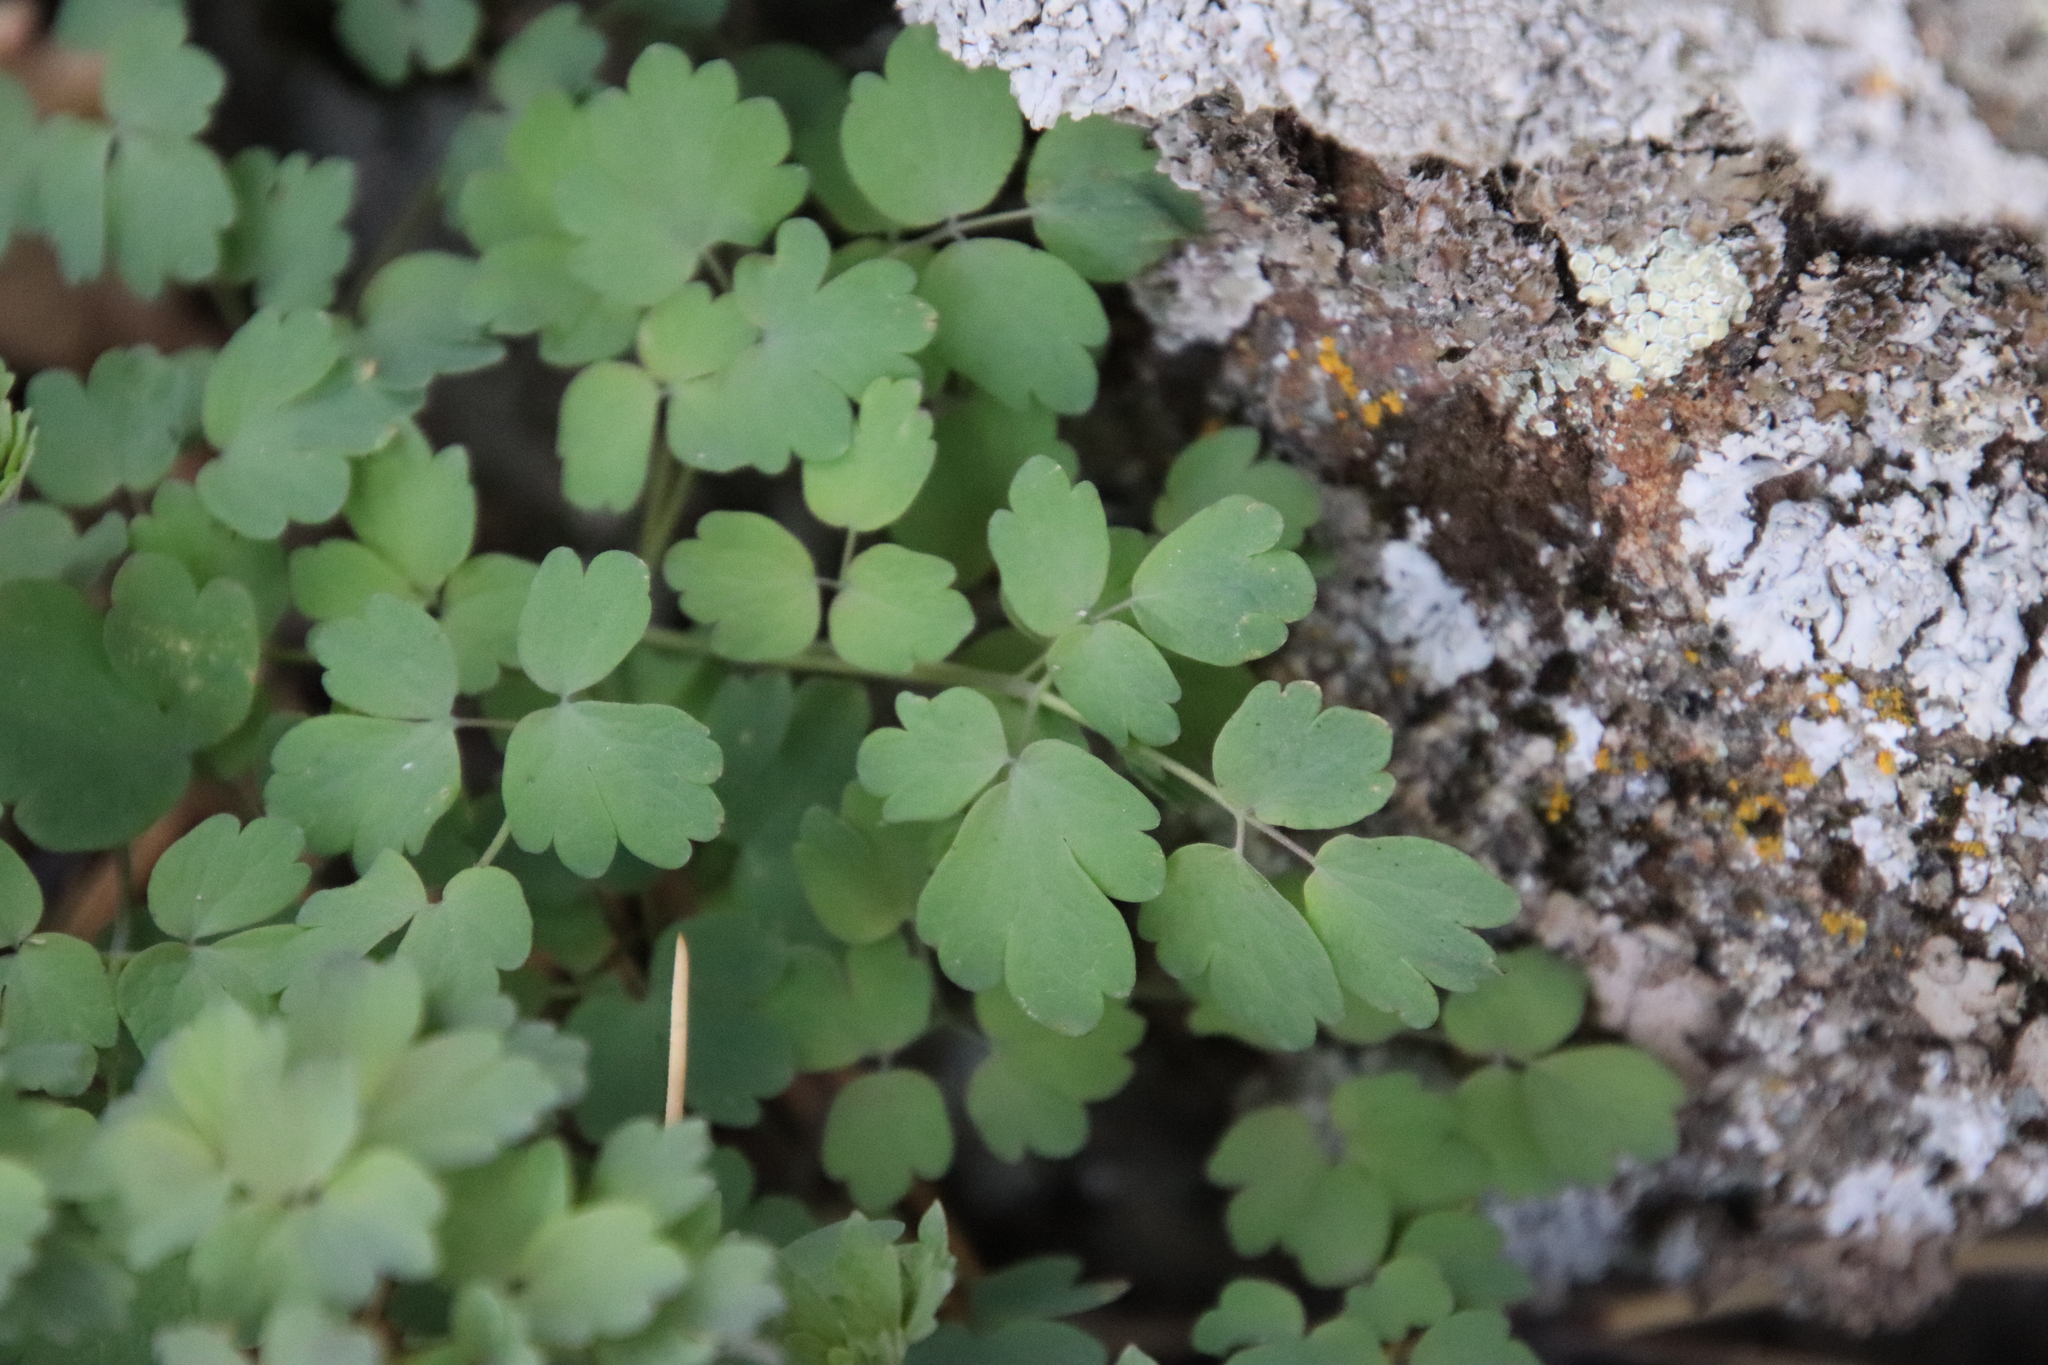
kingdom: Plantae
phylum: Tracheophyta
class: Magnoliopsida
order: Ranunculales
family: Ranunculaceae
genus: Thalictrum
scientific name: Thalictrum fendleri
